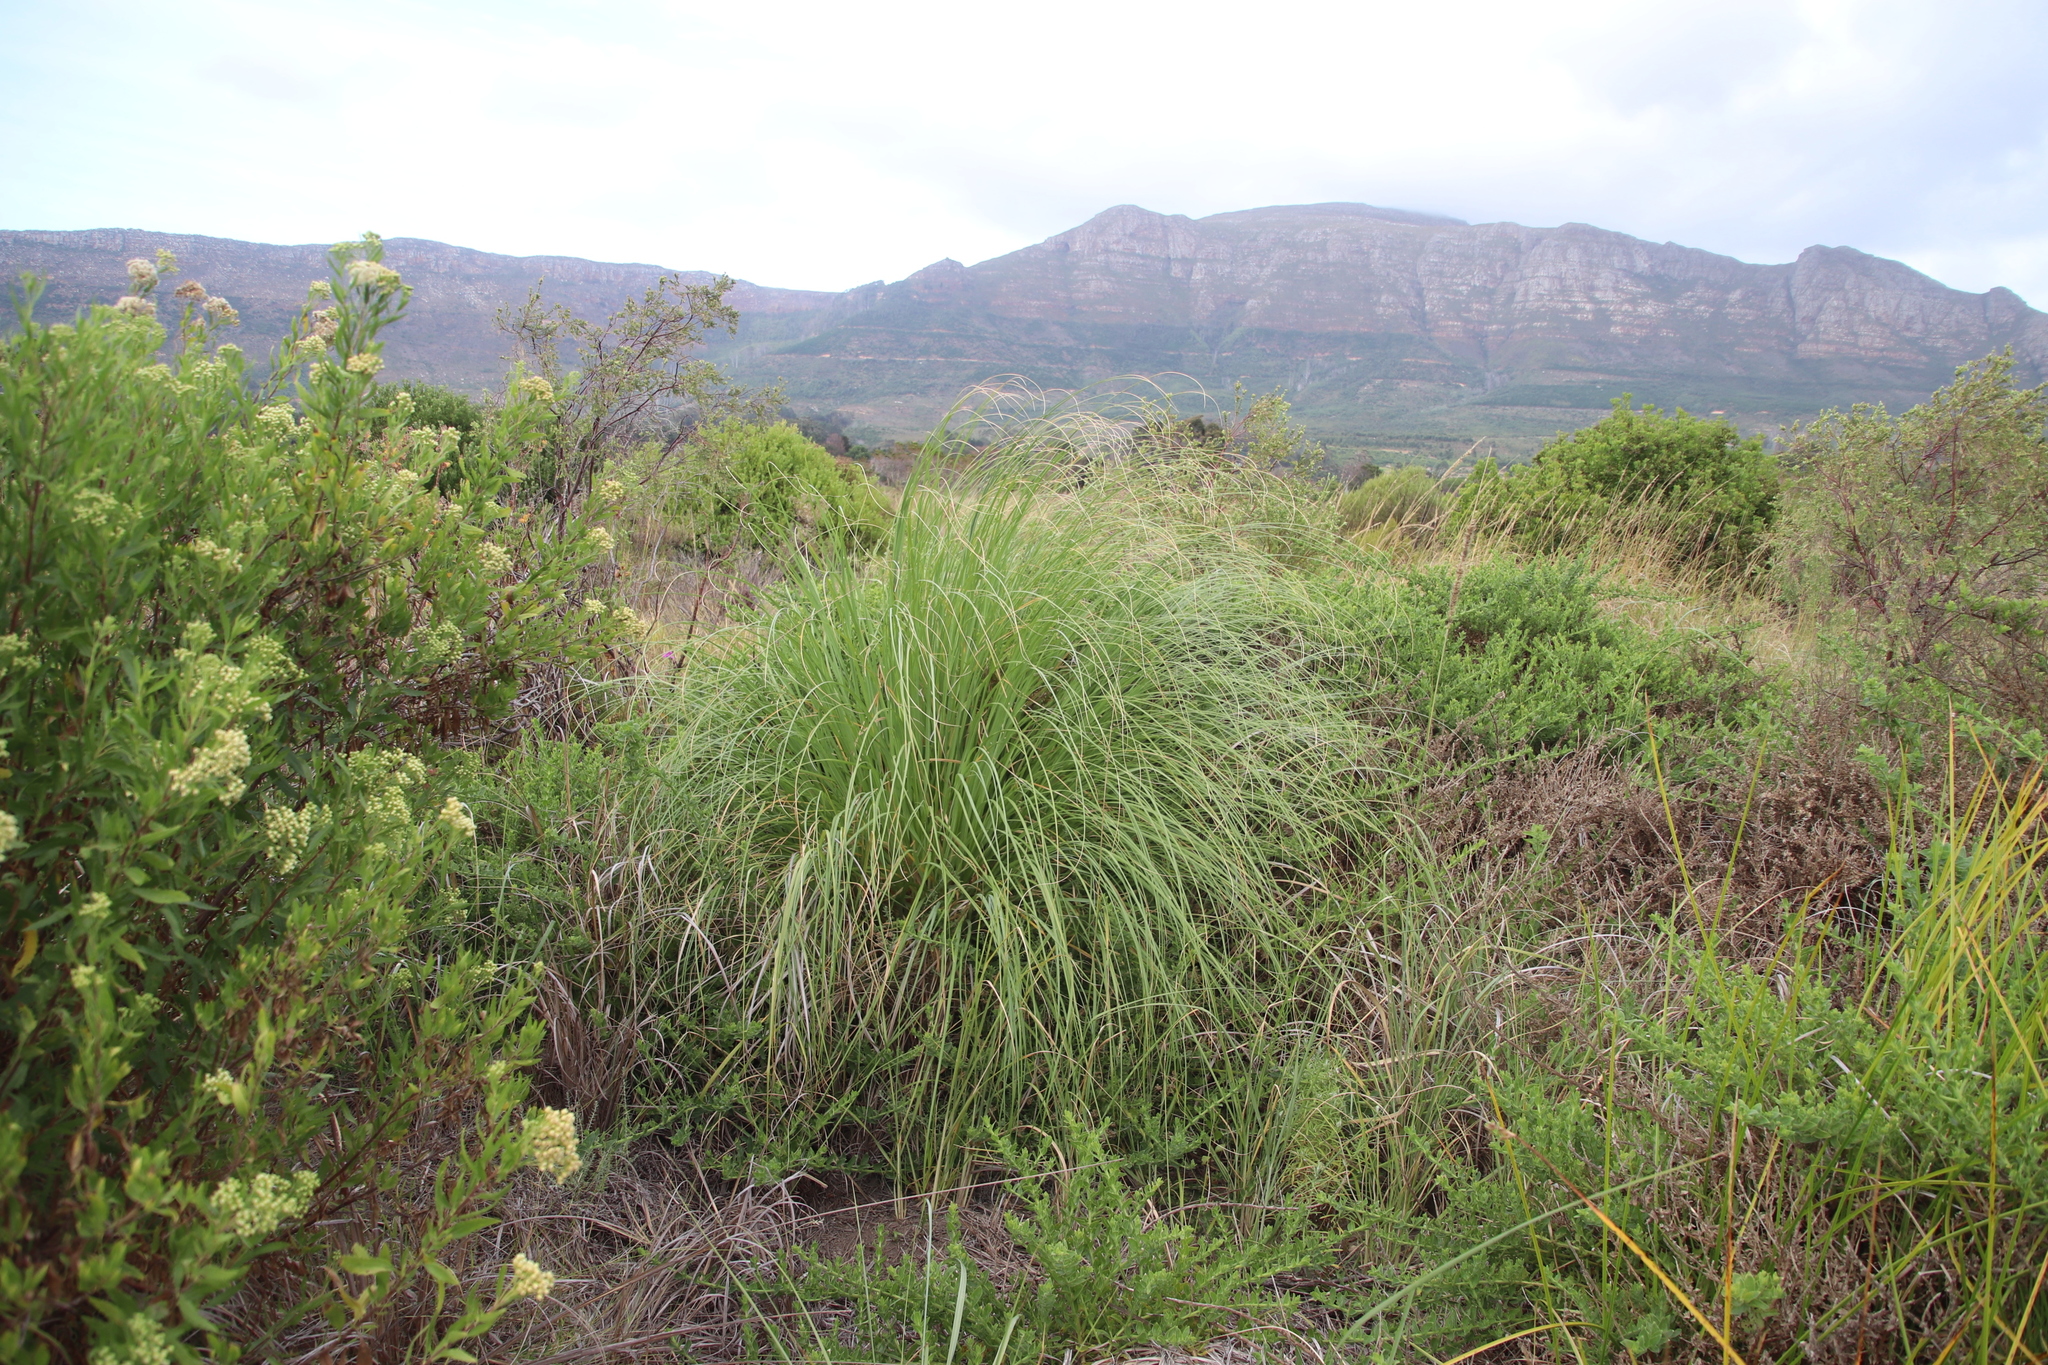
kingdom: Plantae
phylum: Tracheophyta
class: Liliopsida
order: Poales
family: Poaceae
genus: Cortaderia
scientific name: Cortaderia selloana
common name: Uruguayan pampas grass
